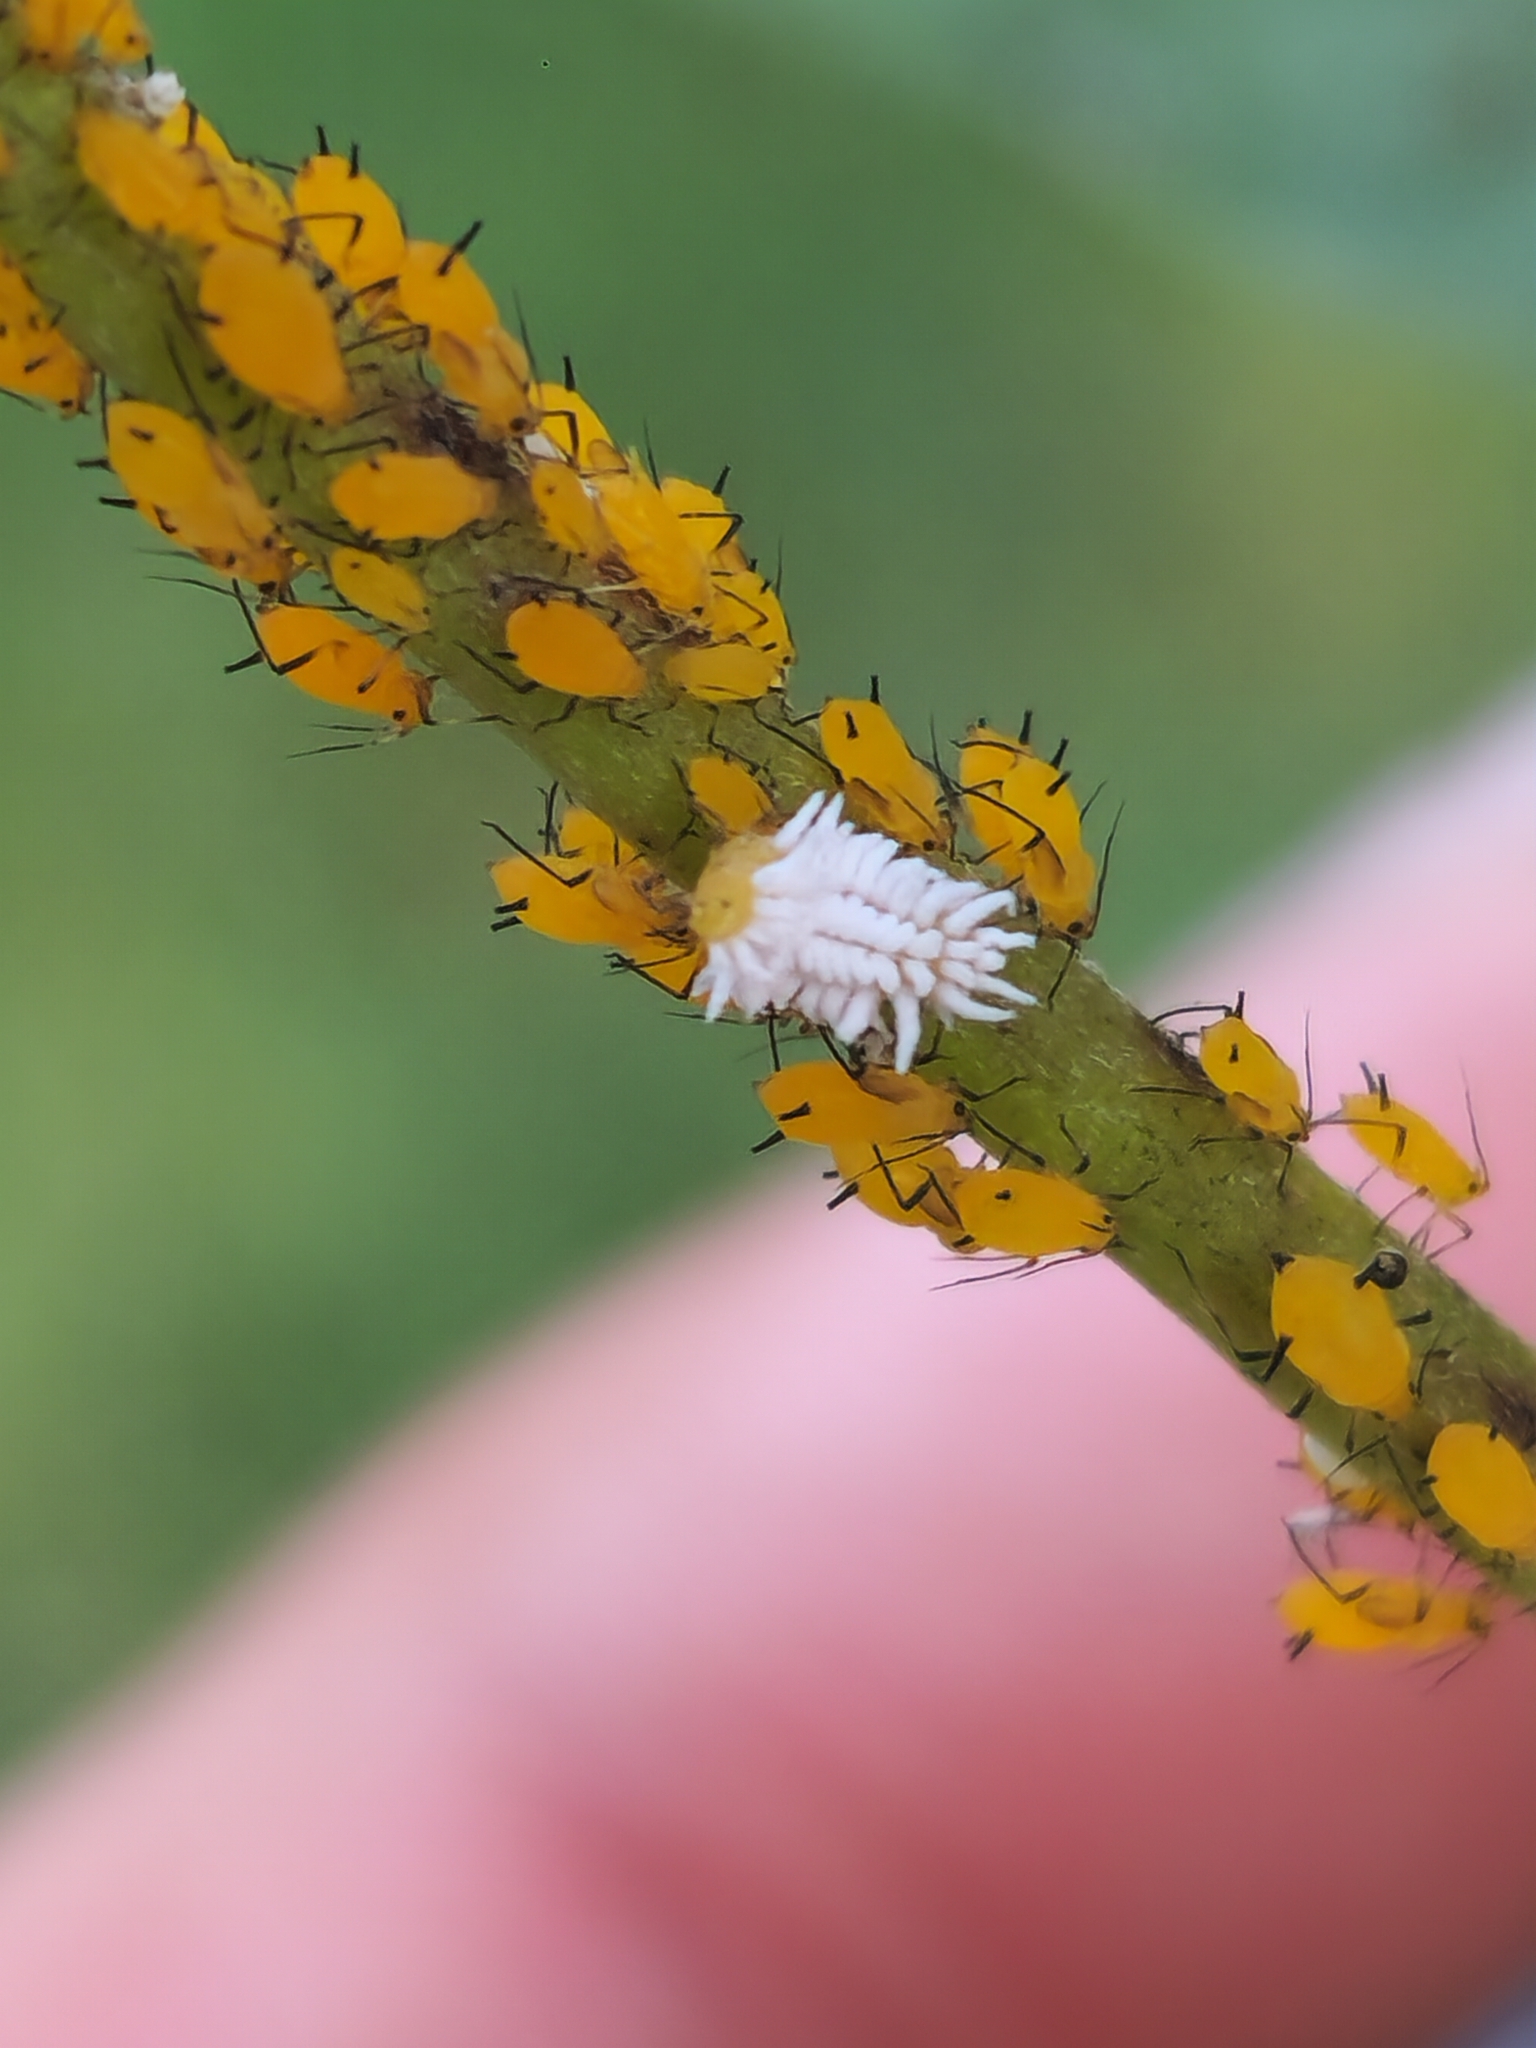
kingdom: Animalia
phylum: Arthropoda
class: Insecta
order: Hemiptera
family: Aphididae
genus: Aphis
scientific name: Aphis nerii
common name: Oleander aphid
